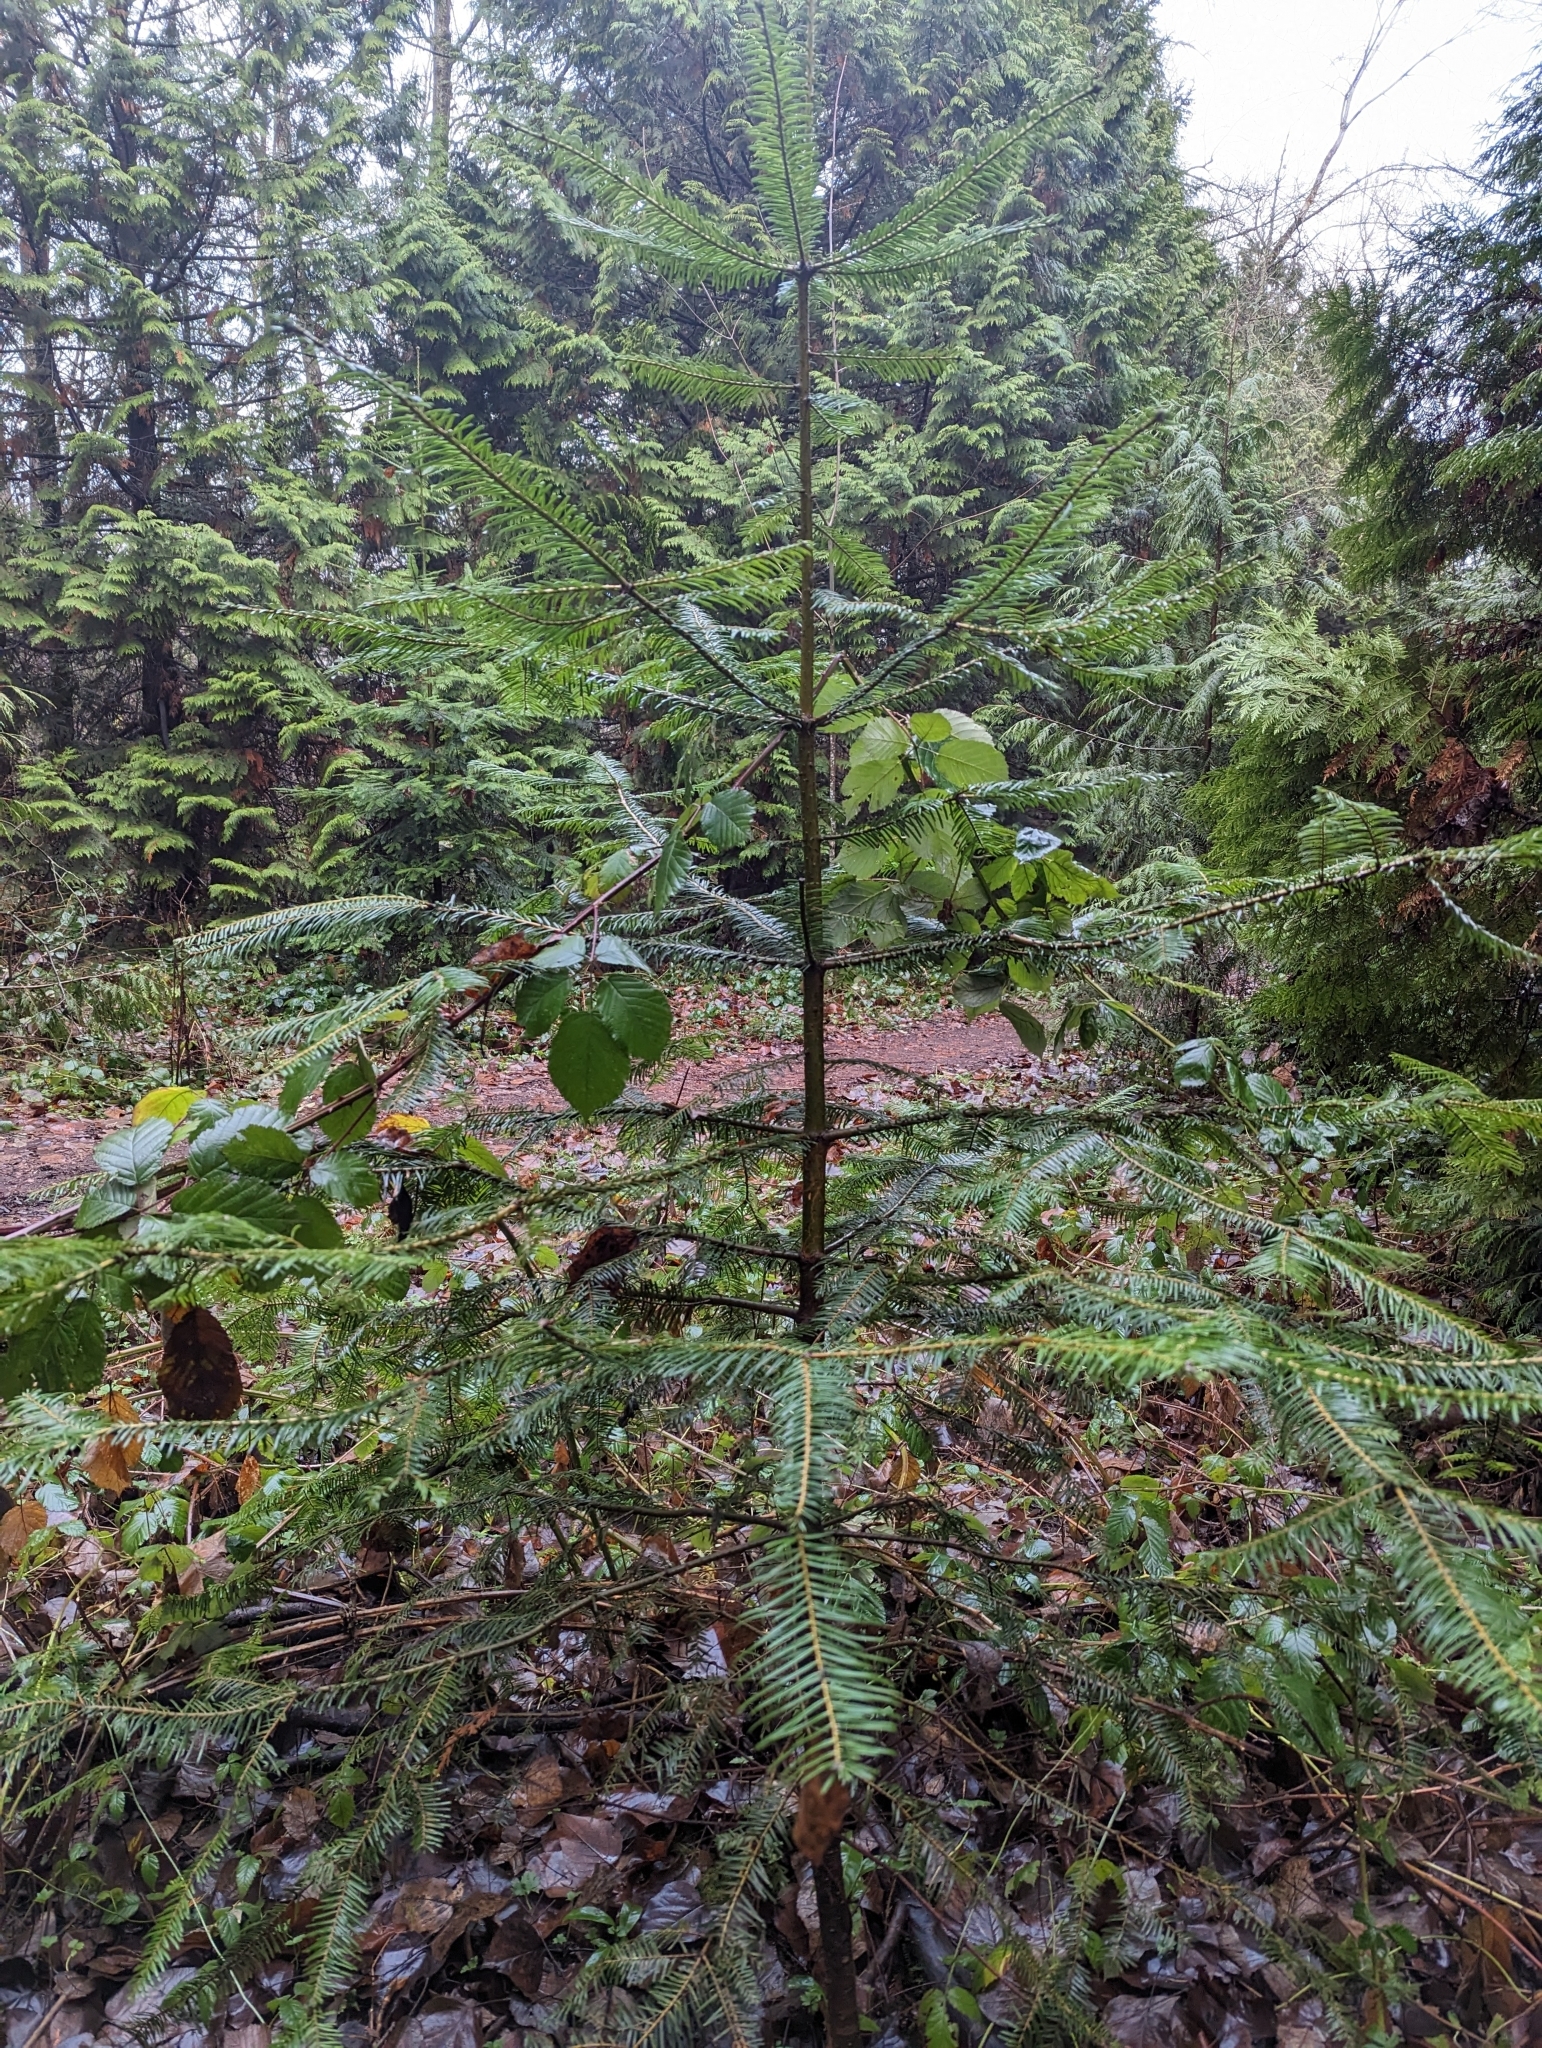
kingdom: Plantae
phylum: Tracheophyta
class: Pinopsida
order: Pinales
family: Pinaceae
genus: Abies
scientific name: Abies grandis
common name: Giant fir
